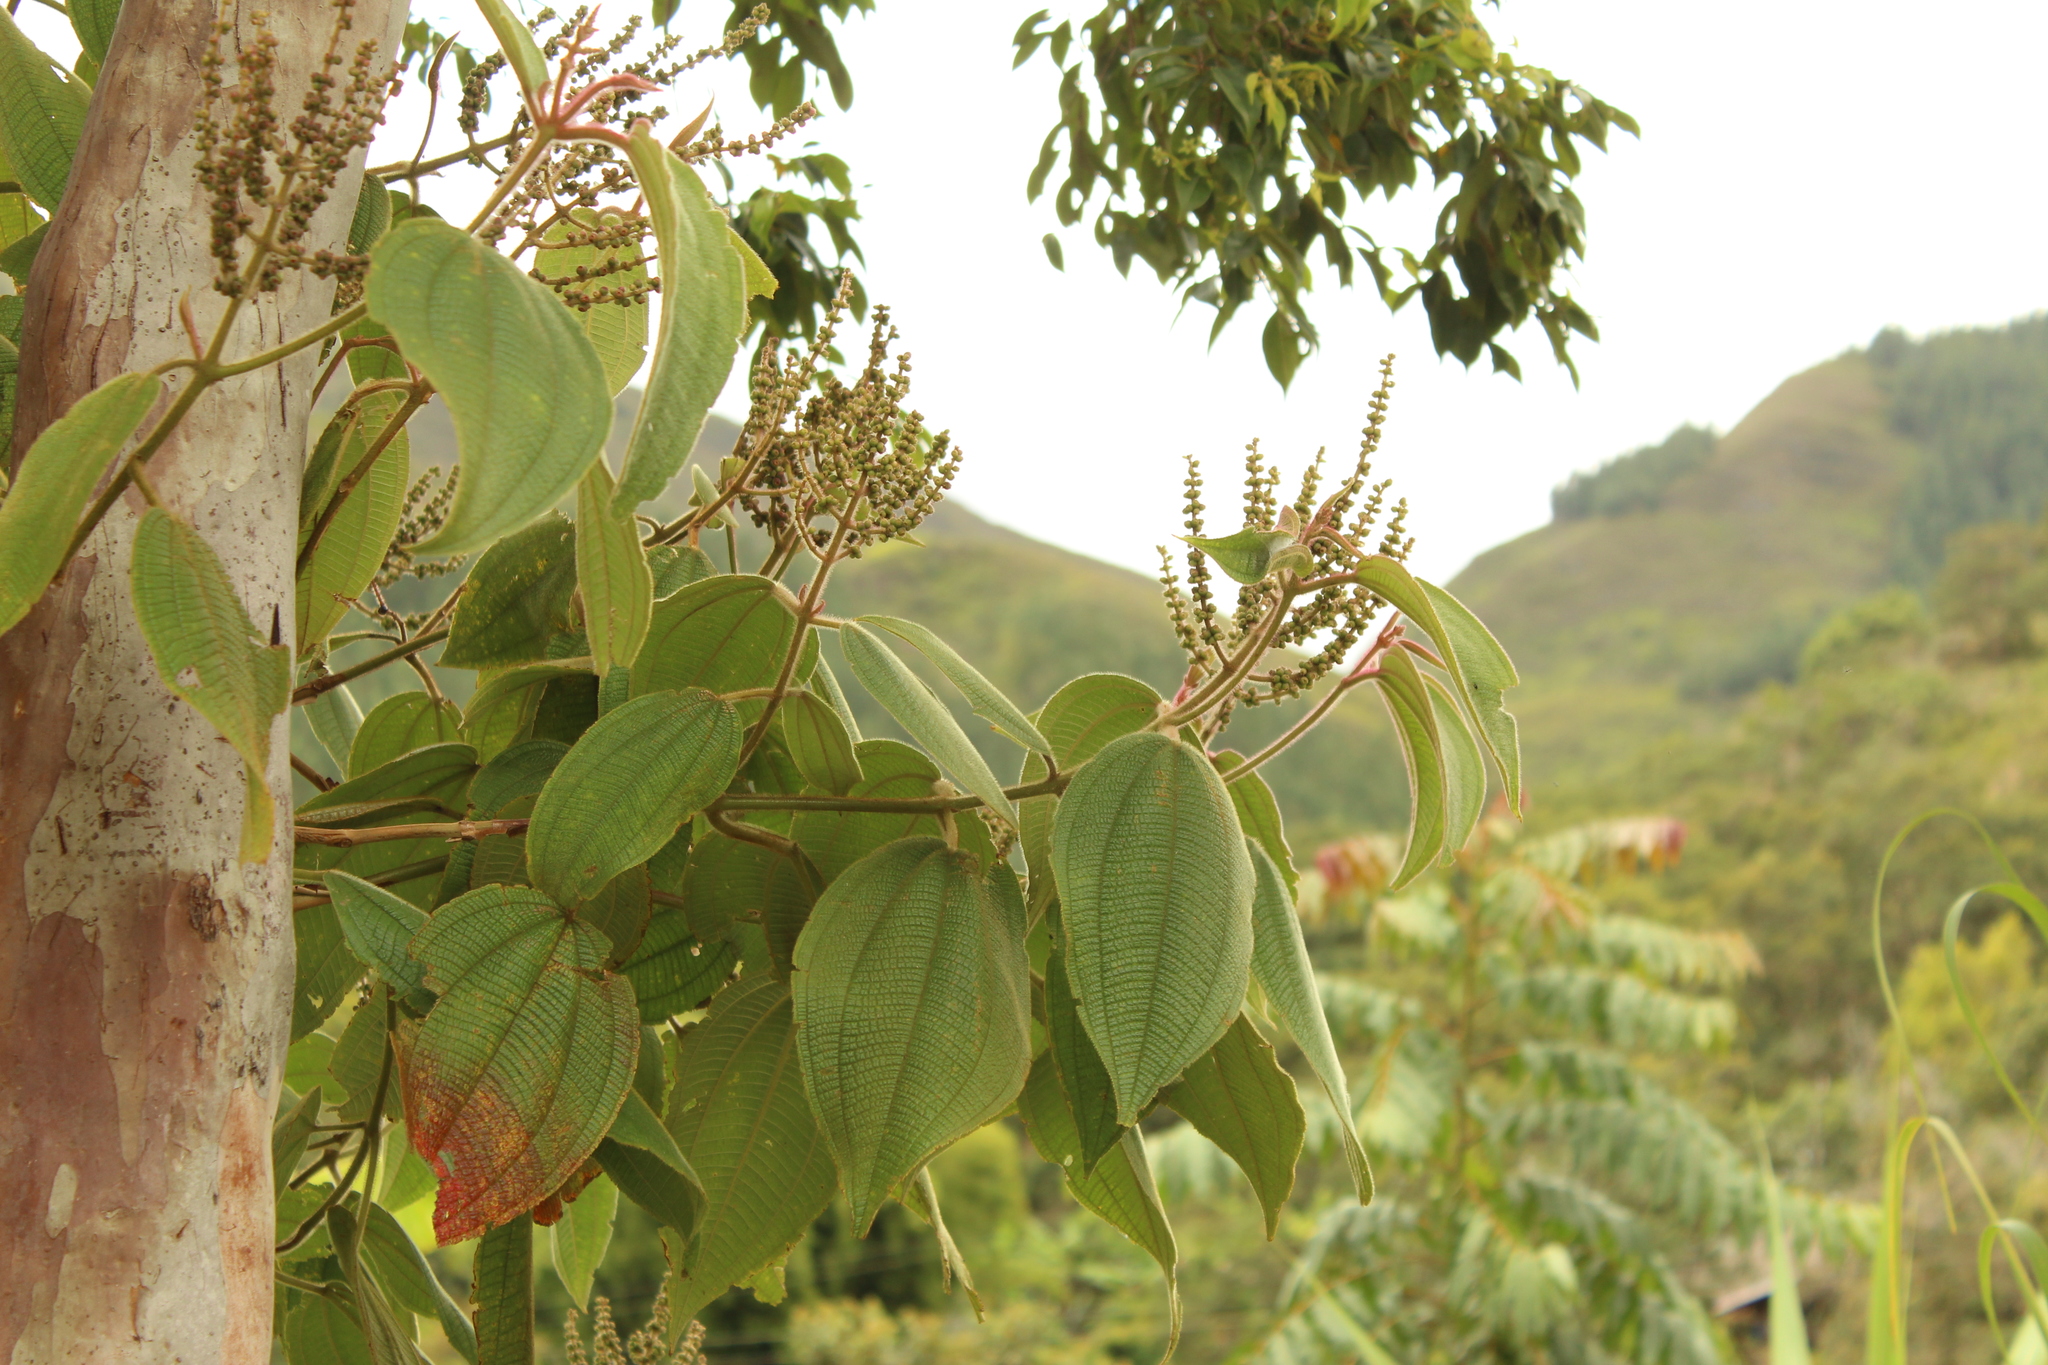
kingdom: Plantae
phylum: Tracheophyta
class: Magnoliopsida
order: Myrtales
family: Melastomataceae
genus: Miconia
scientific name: Miconia aeruginosa
